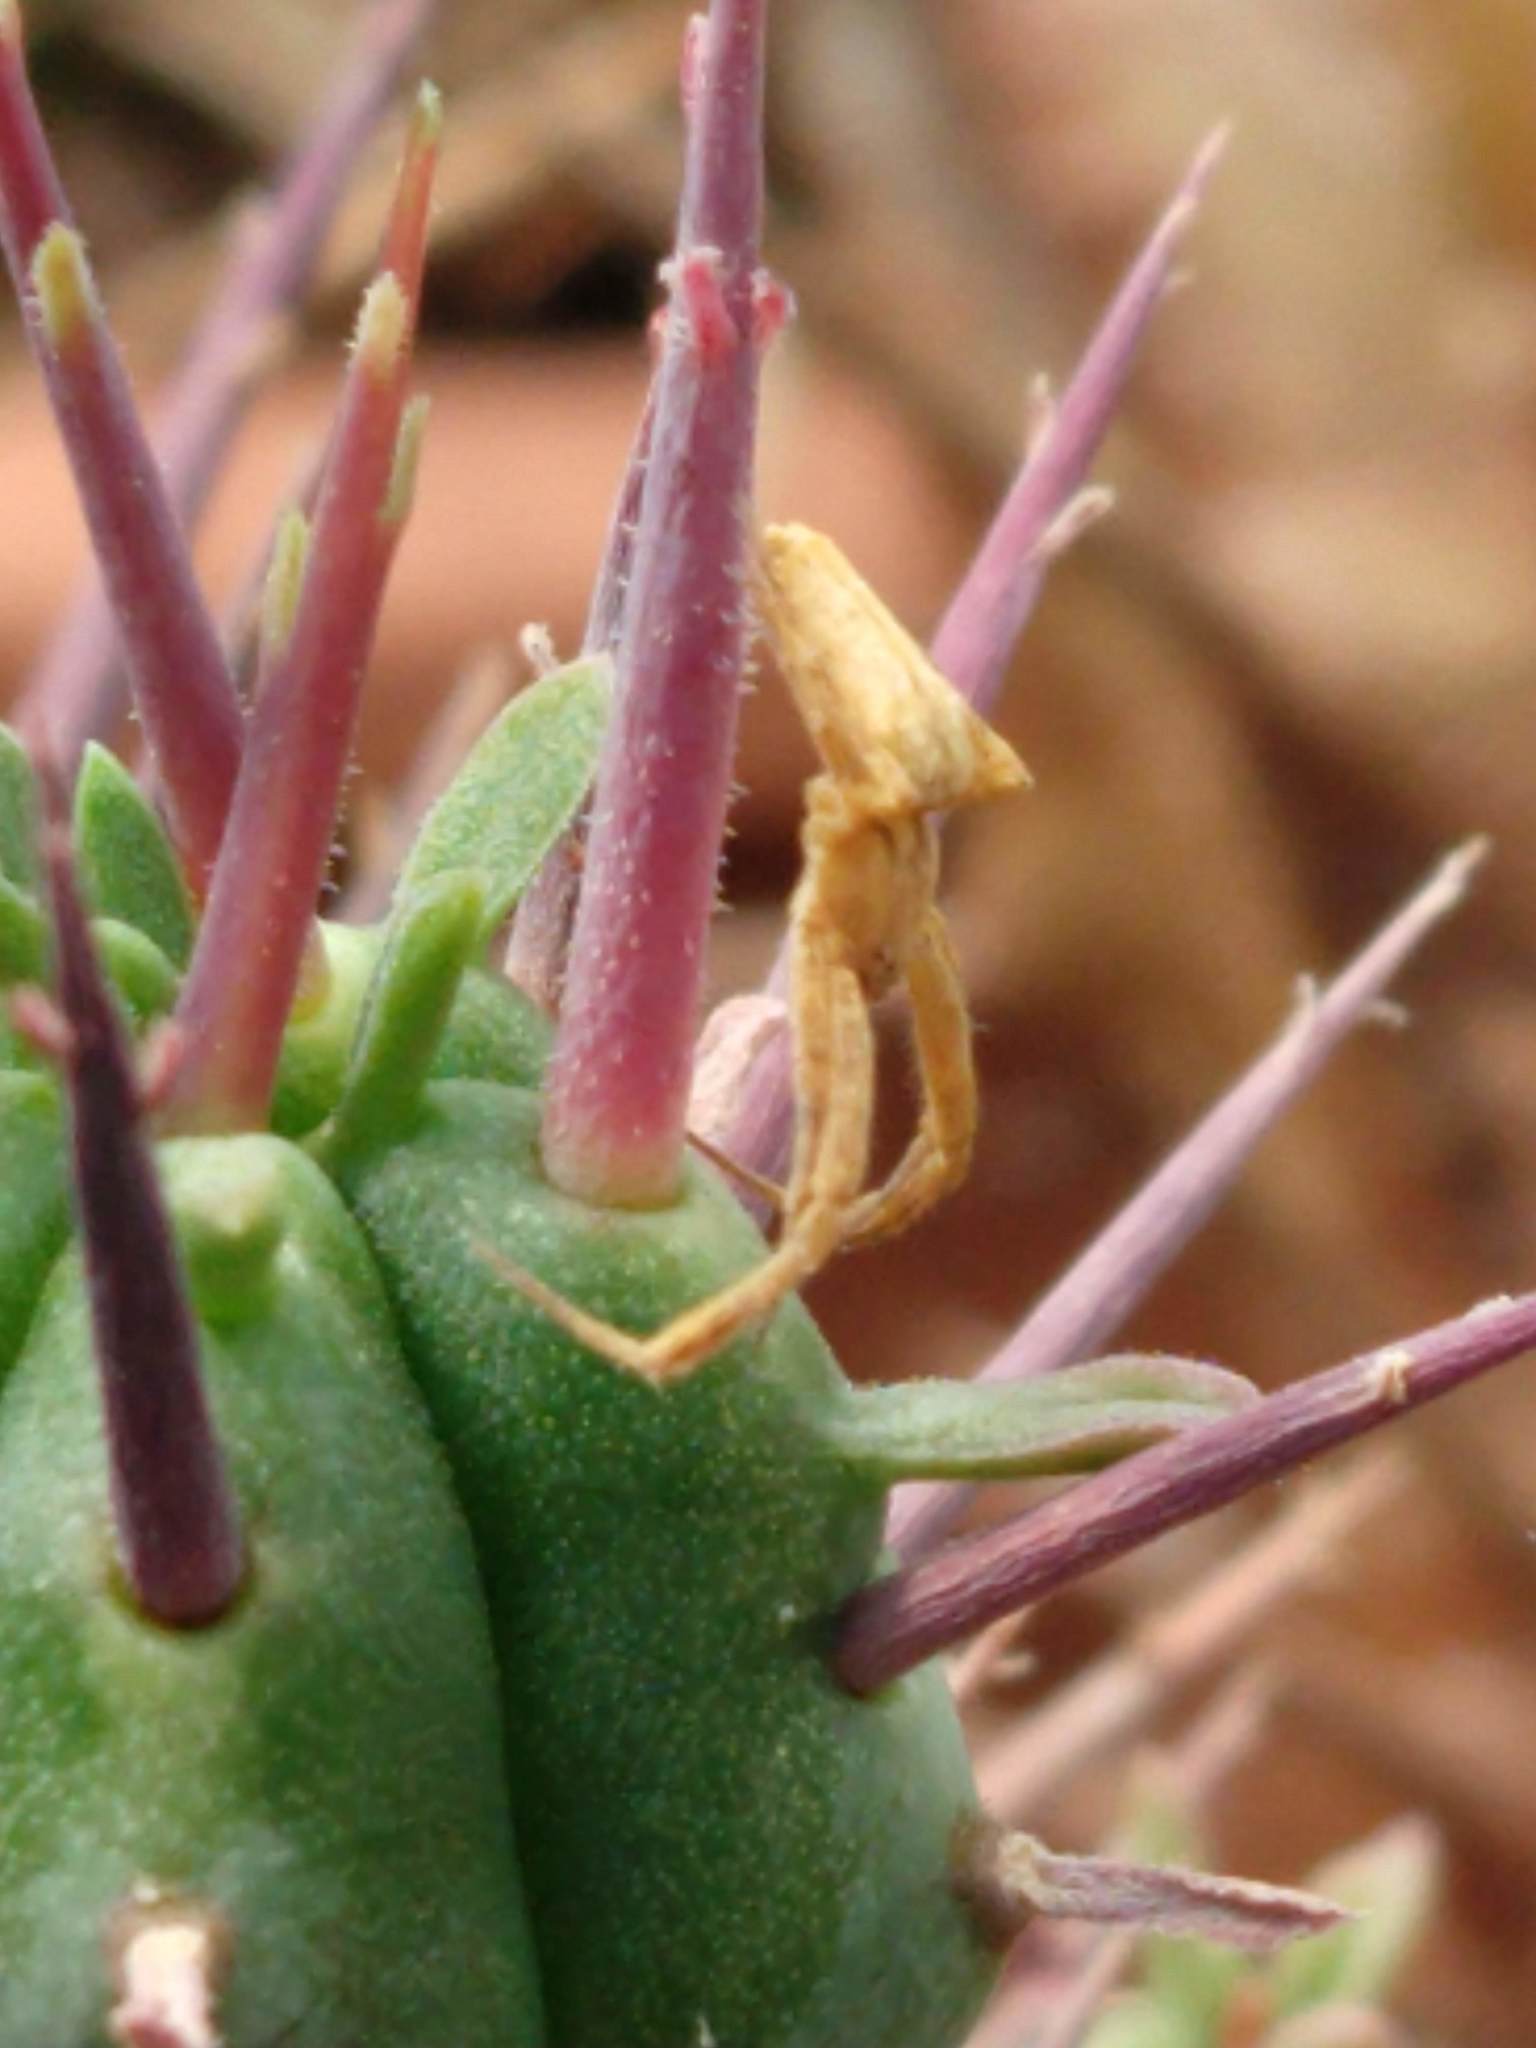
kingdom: Animalia
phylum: Arthropoda
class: Arachnida
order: Araneae
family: Uloboridae
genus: Uloborus
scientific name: Uloborus walckenaerius
